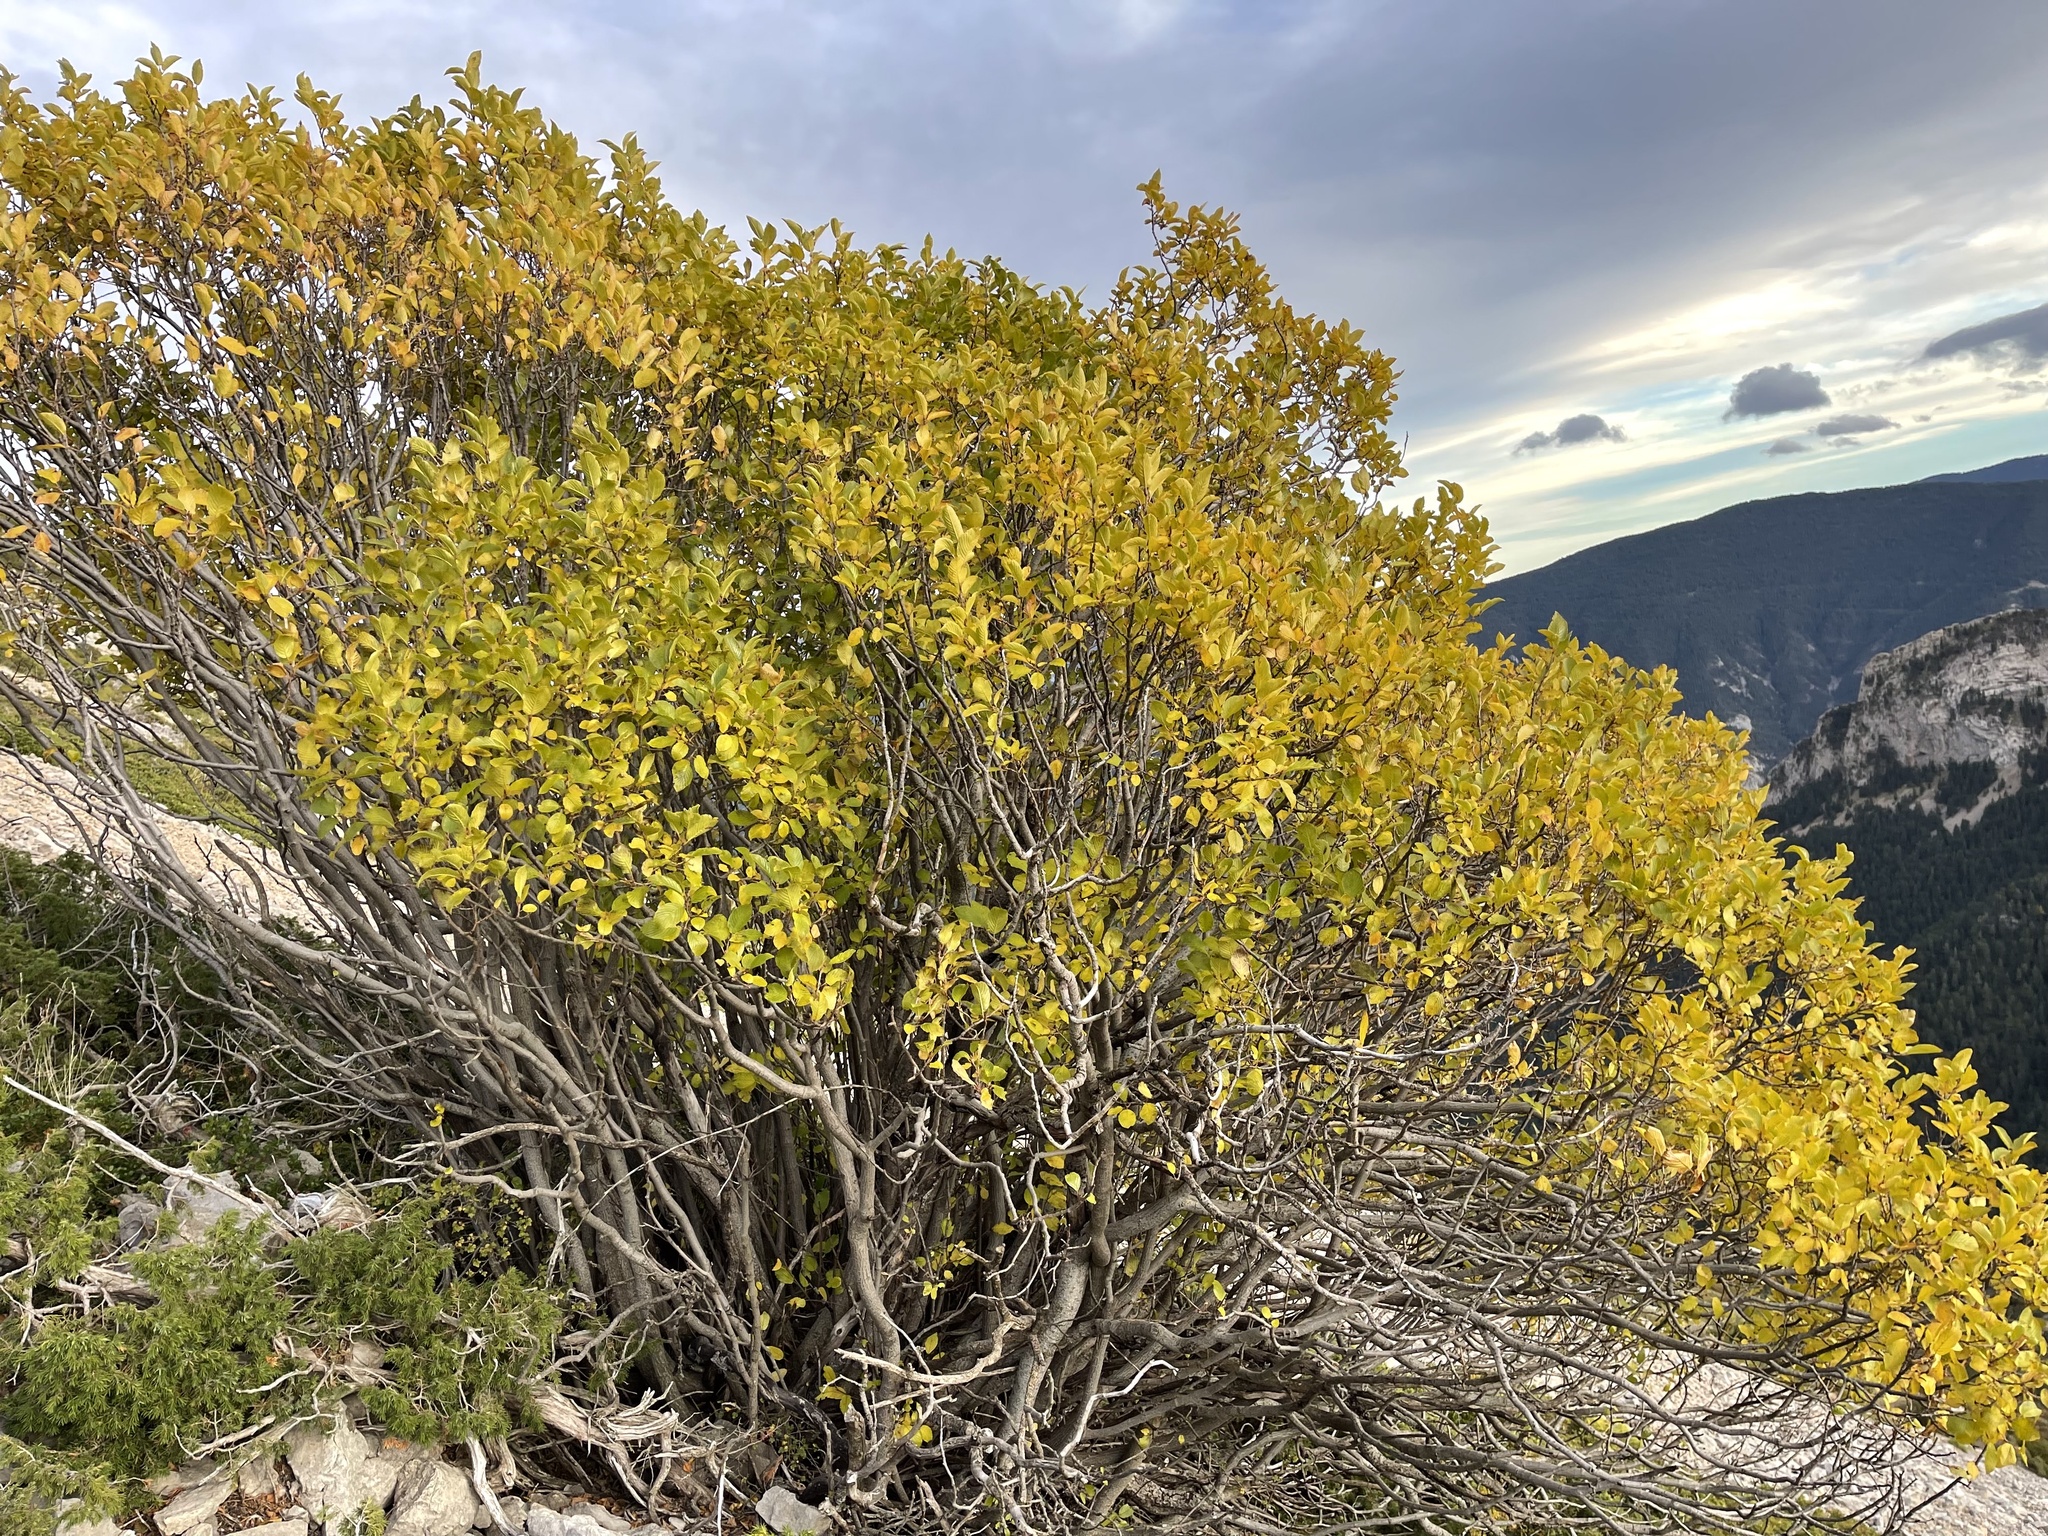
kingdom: Plantae
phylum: Tracheophyta
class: Magnoliopsida
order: Rosales
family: Rhamnaceae
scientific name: Rhamnaceae
